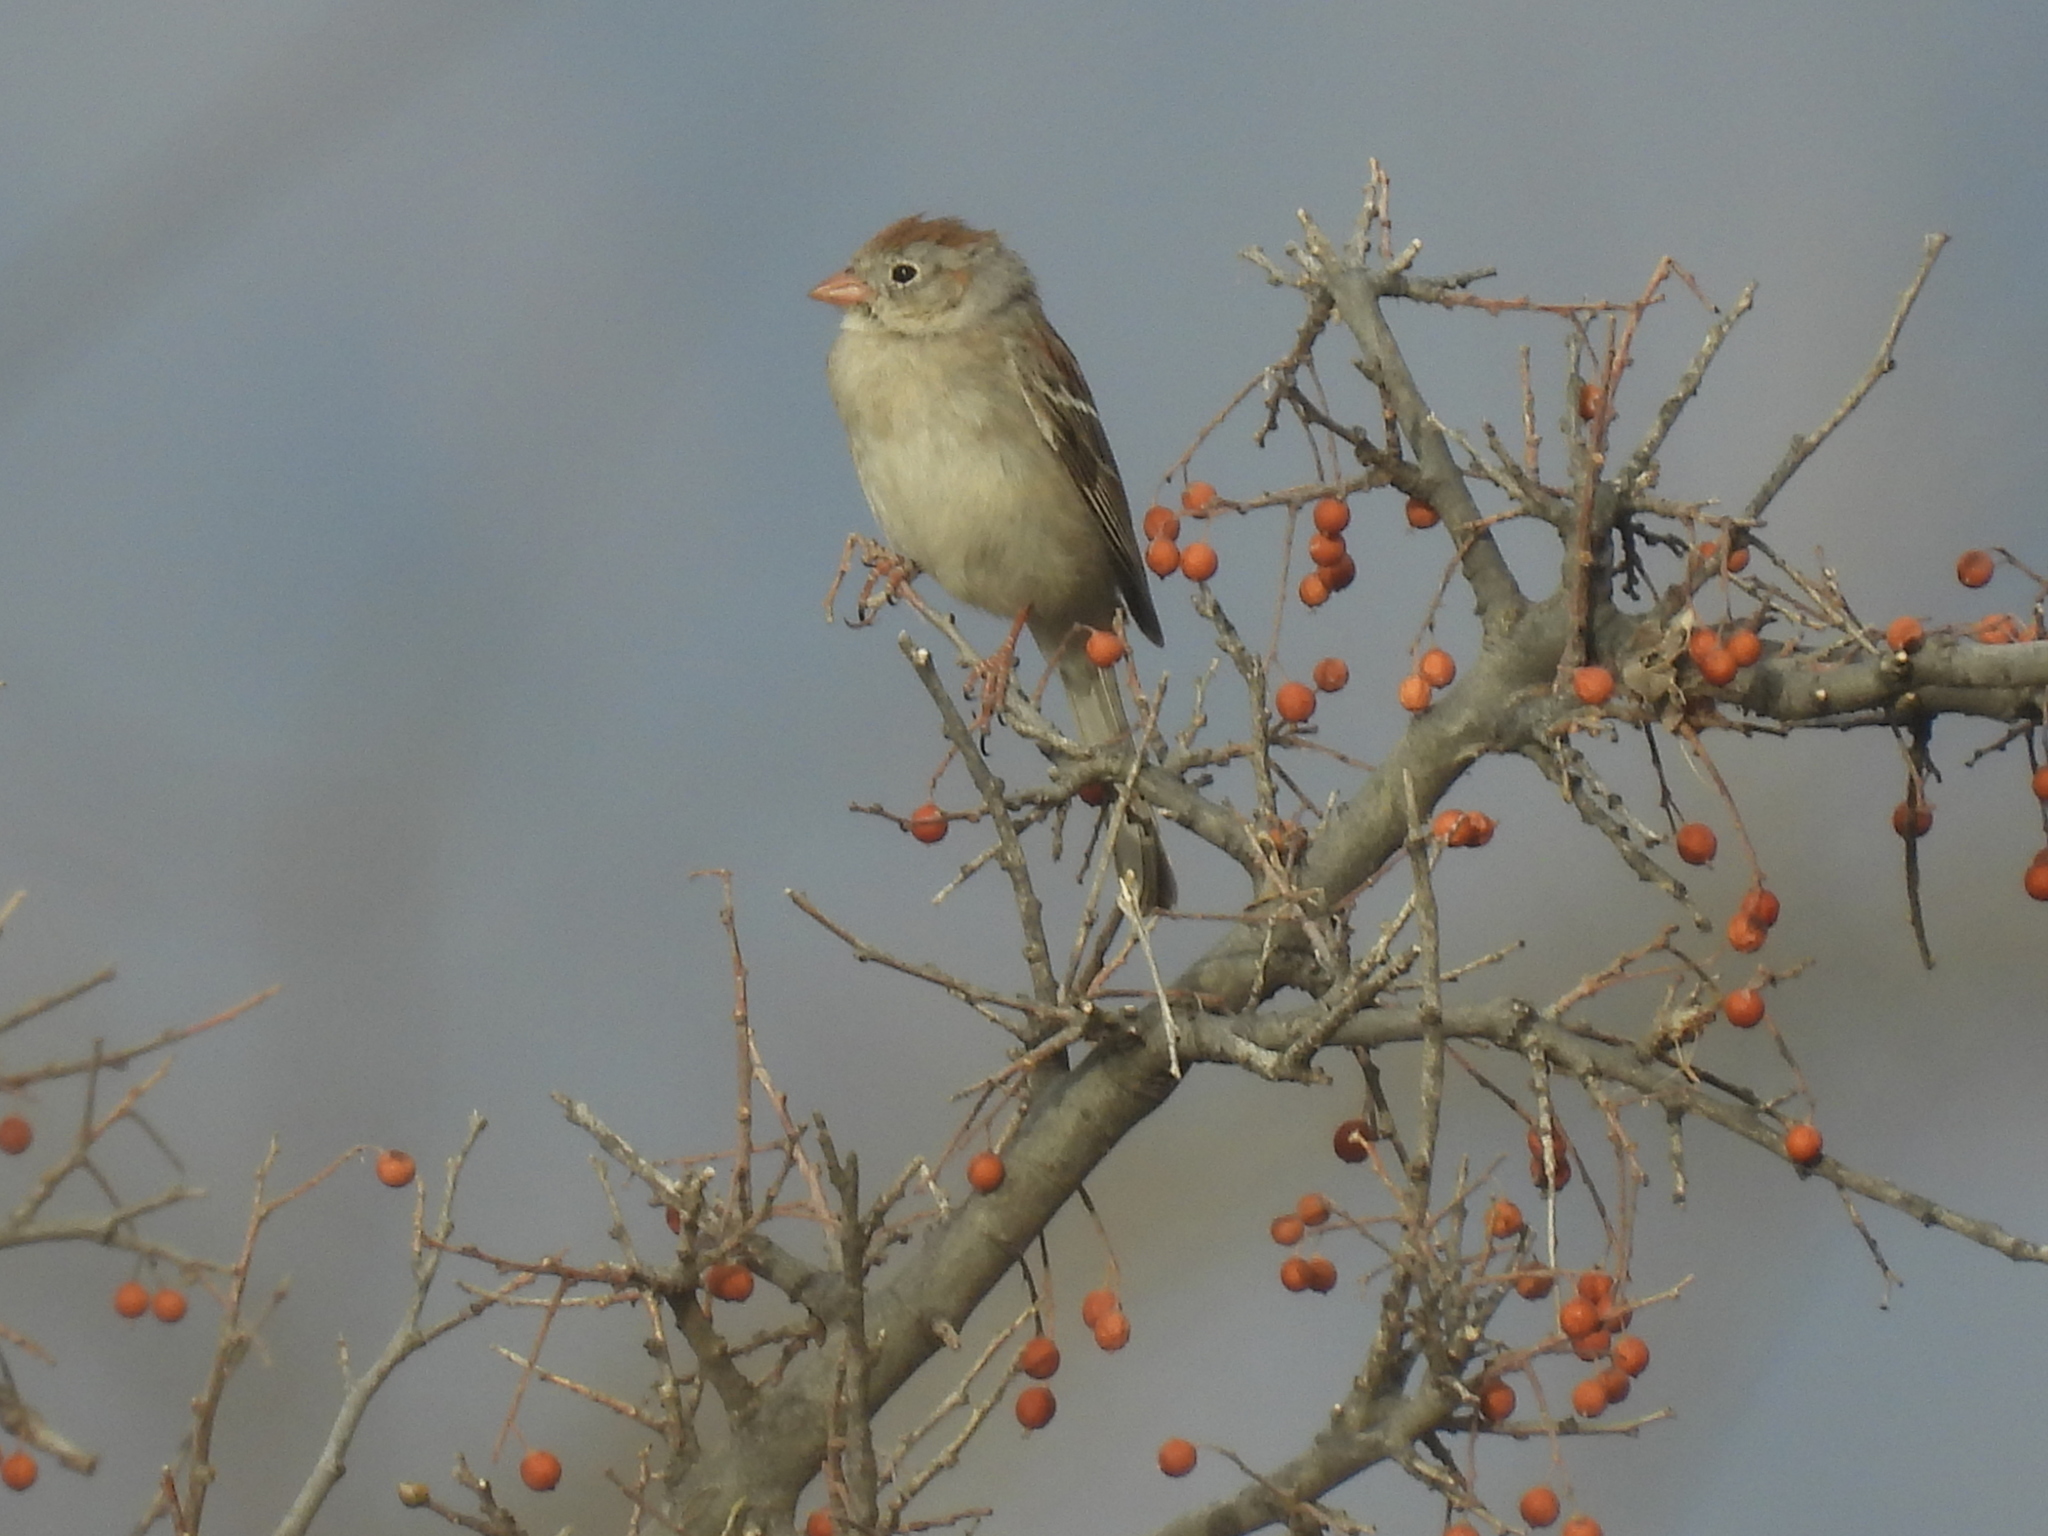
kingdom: Animalia
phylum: Chordata
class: Aves
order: Passeriformes
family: Passerellidae
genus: Spizella
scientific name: Spizella pusilla
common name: Field sparrow
